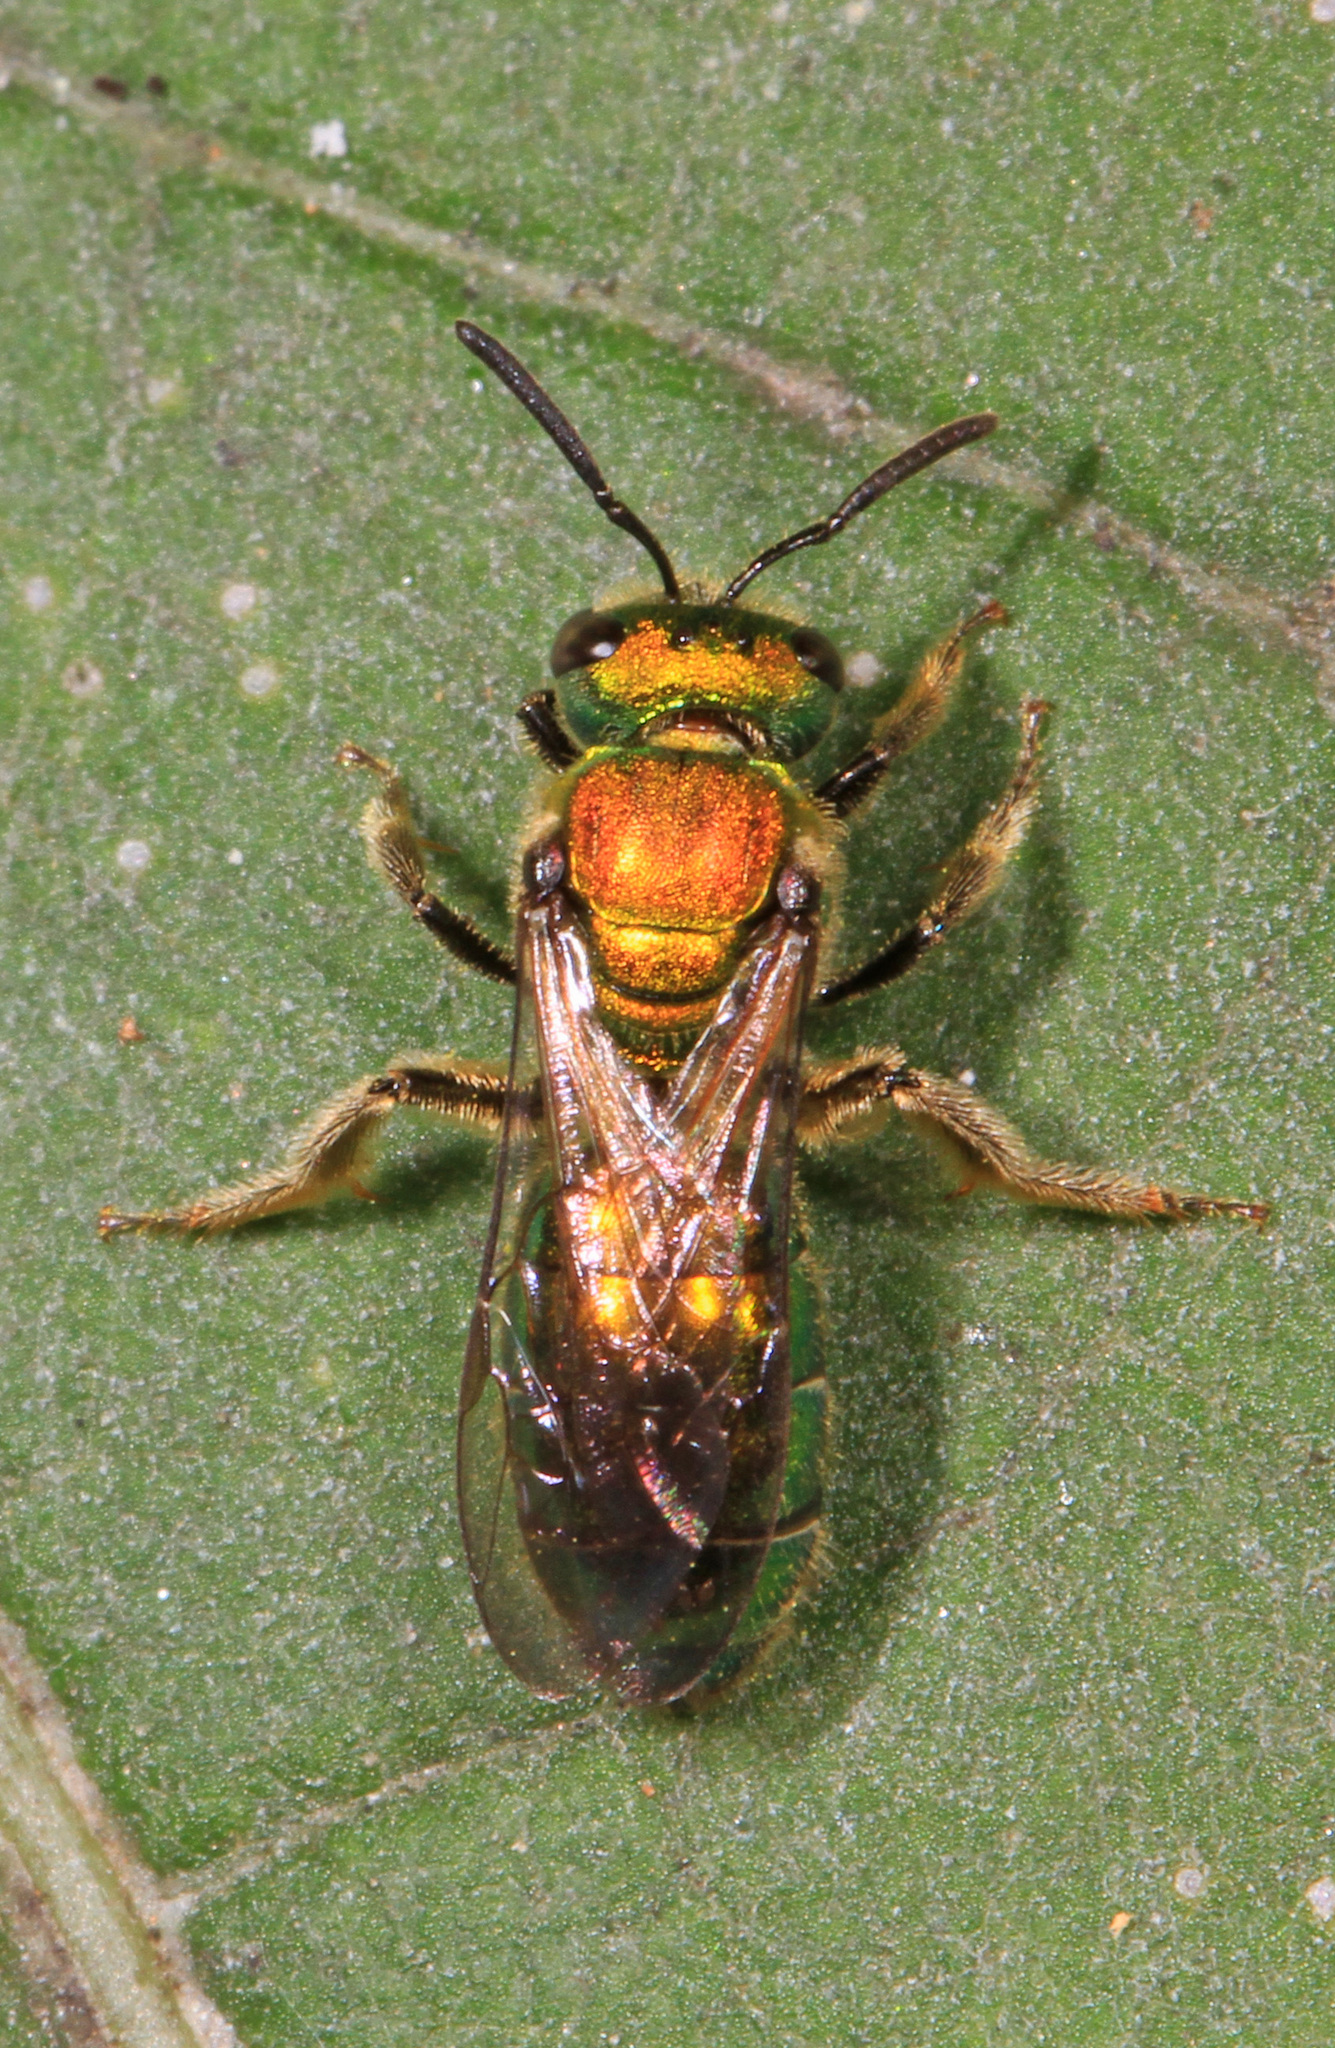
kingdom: Animalia
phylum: Arthropoda
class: Insecta
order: Hymenoptera
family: Halictidae
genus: Augochlora
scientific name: Augochlora pura
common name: Pure green sweat bee
